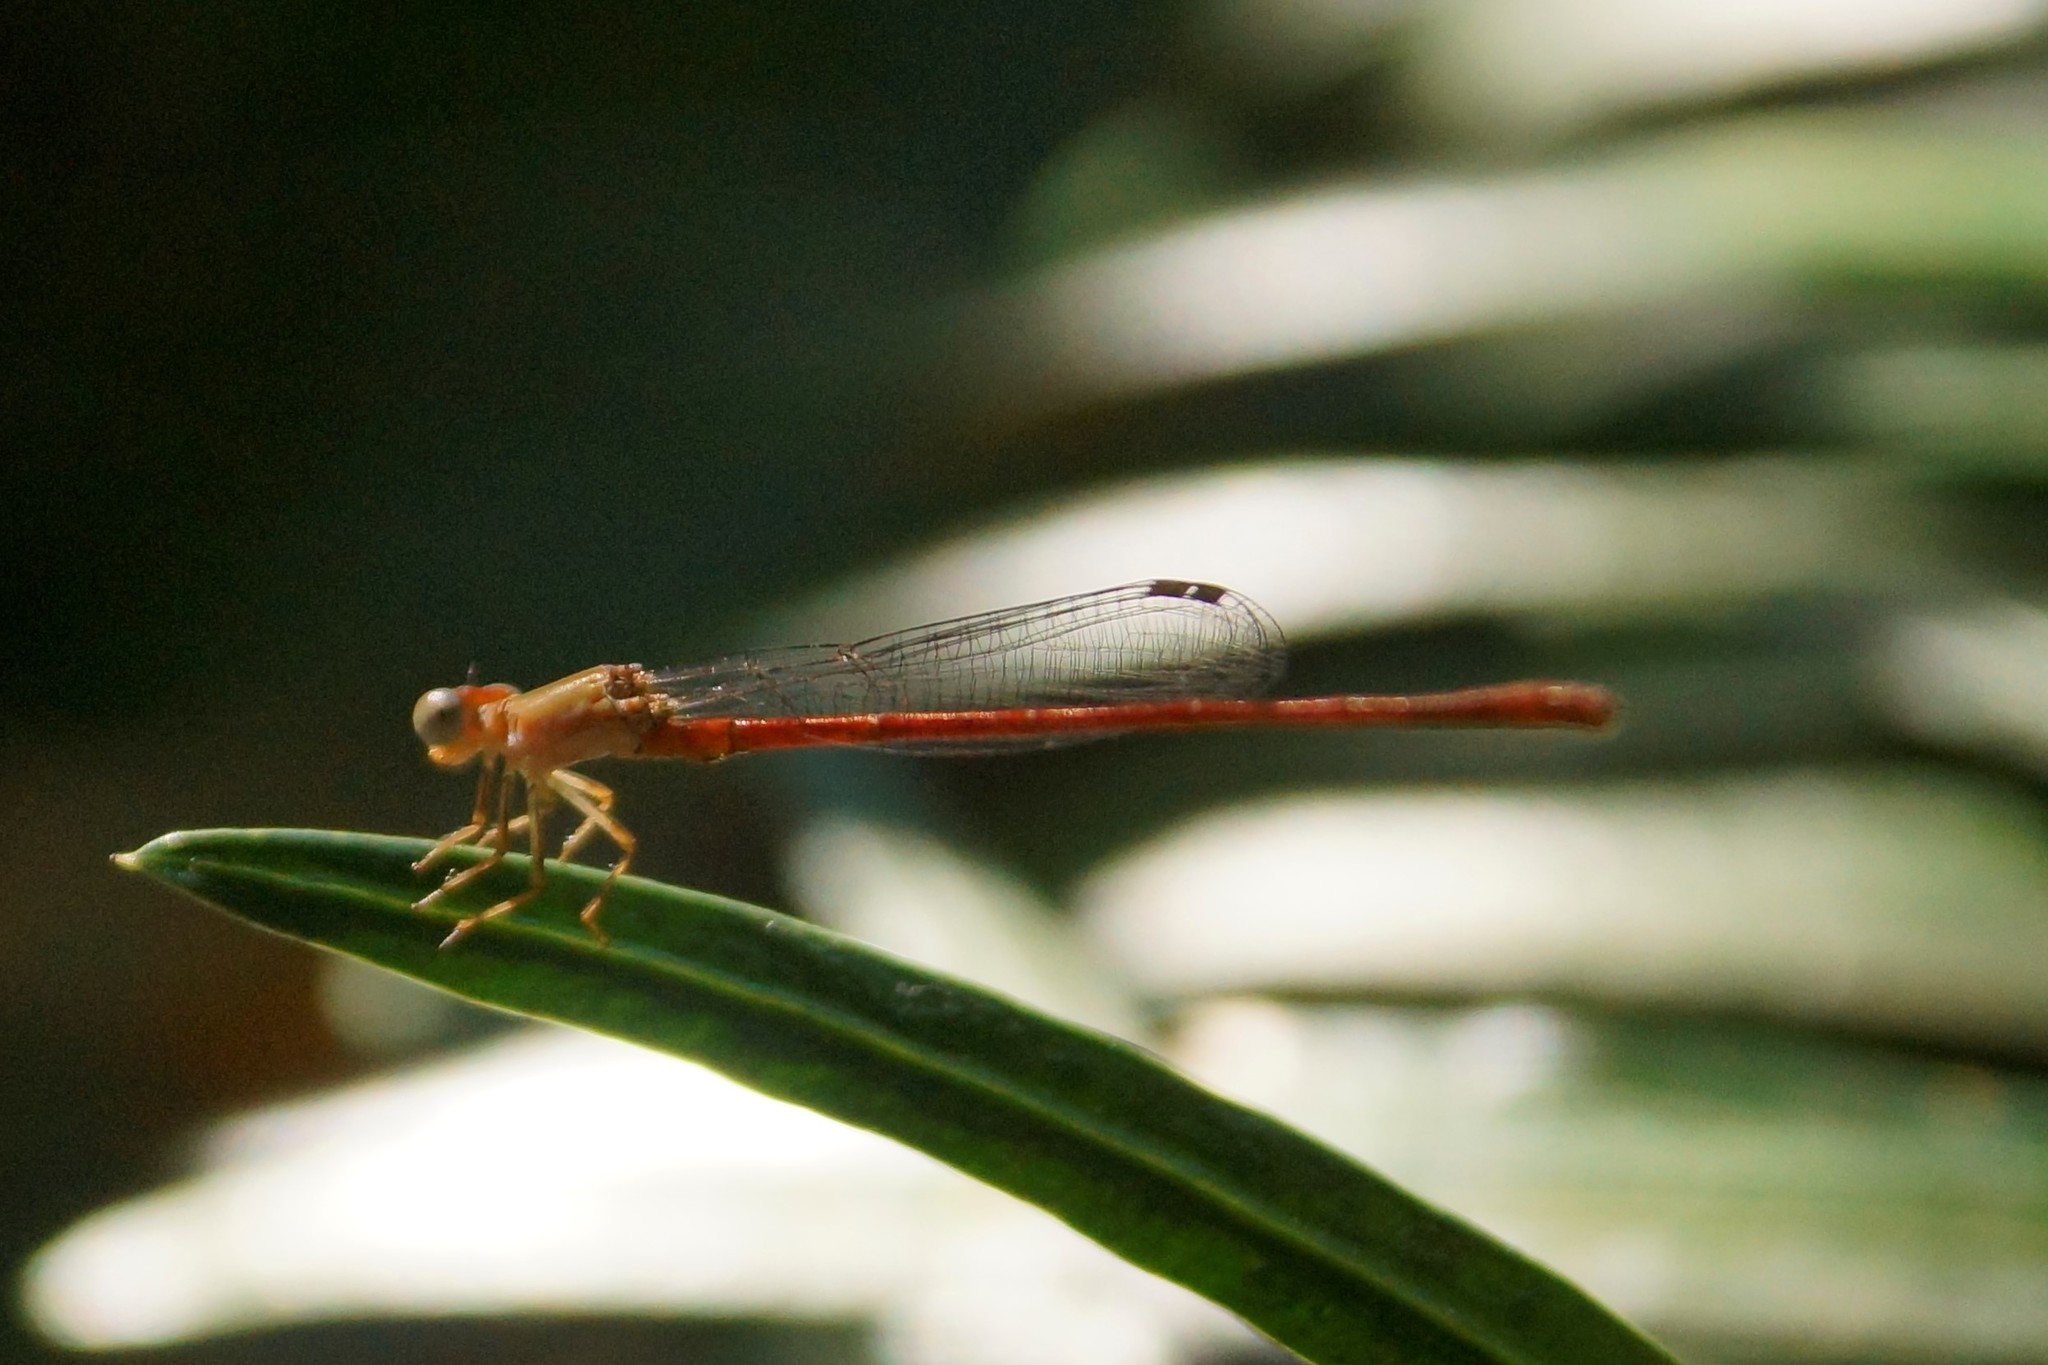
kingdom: Animalia
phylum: Arthropoda
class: Insecta
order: Odonata
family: Coenagrionidae
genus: Ceriagrion
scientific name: Ceriagrion aeruginosum
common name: Redtail
